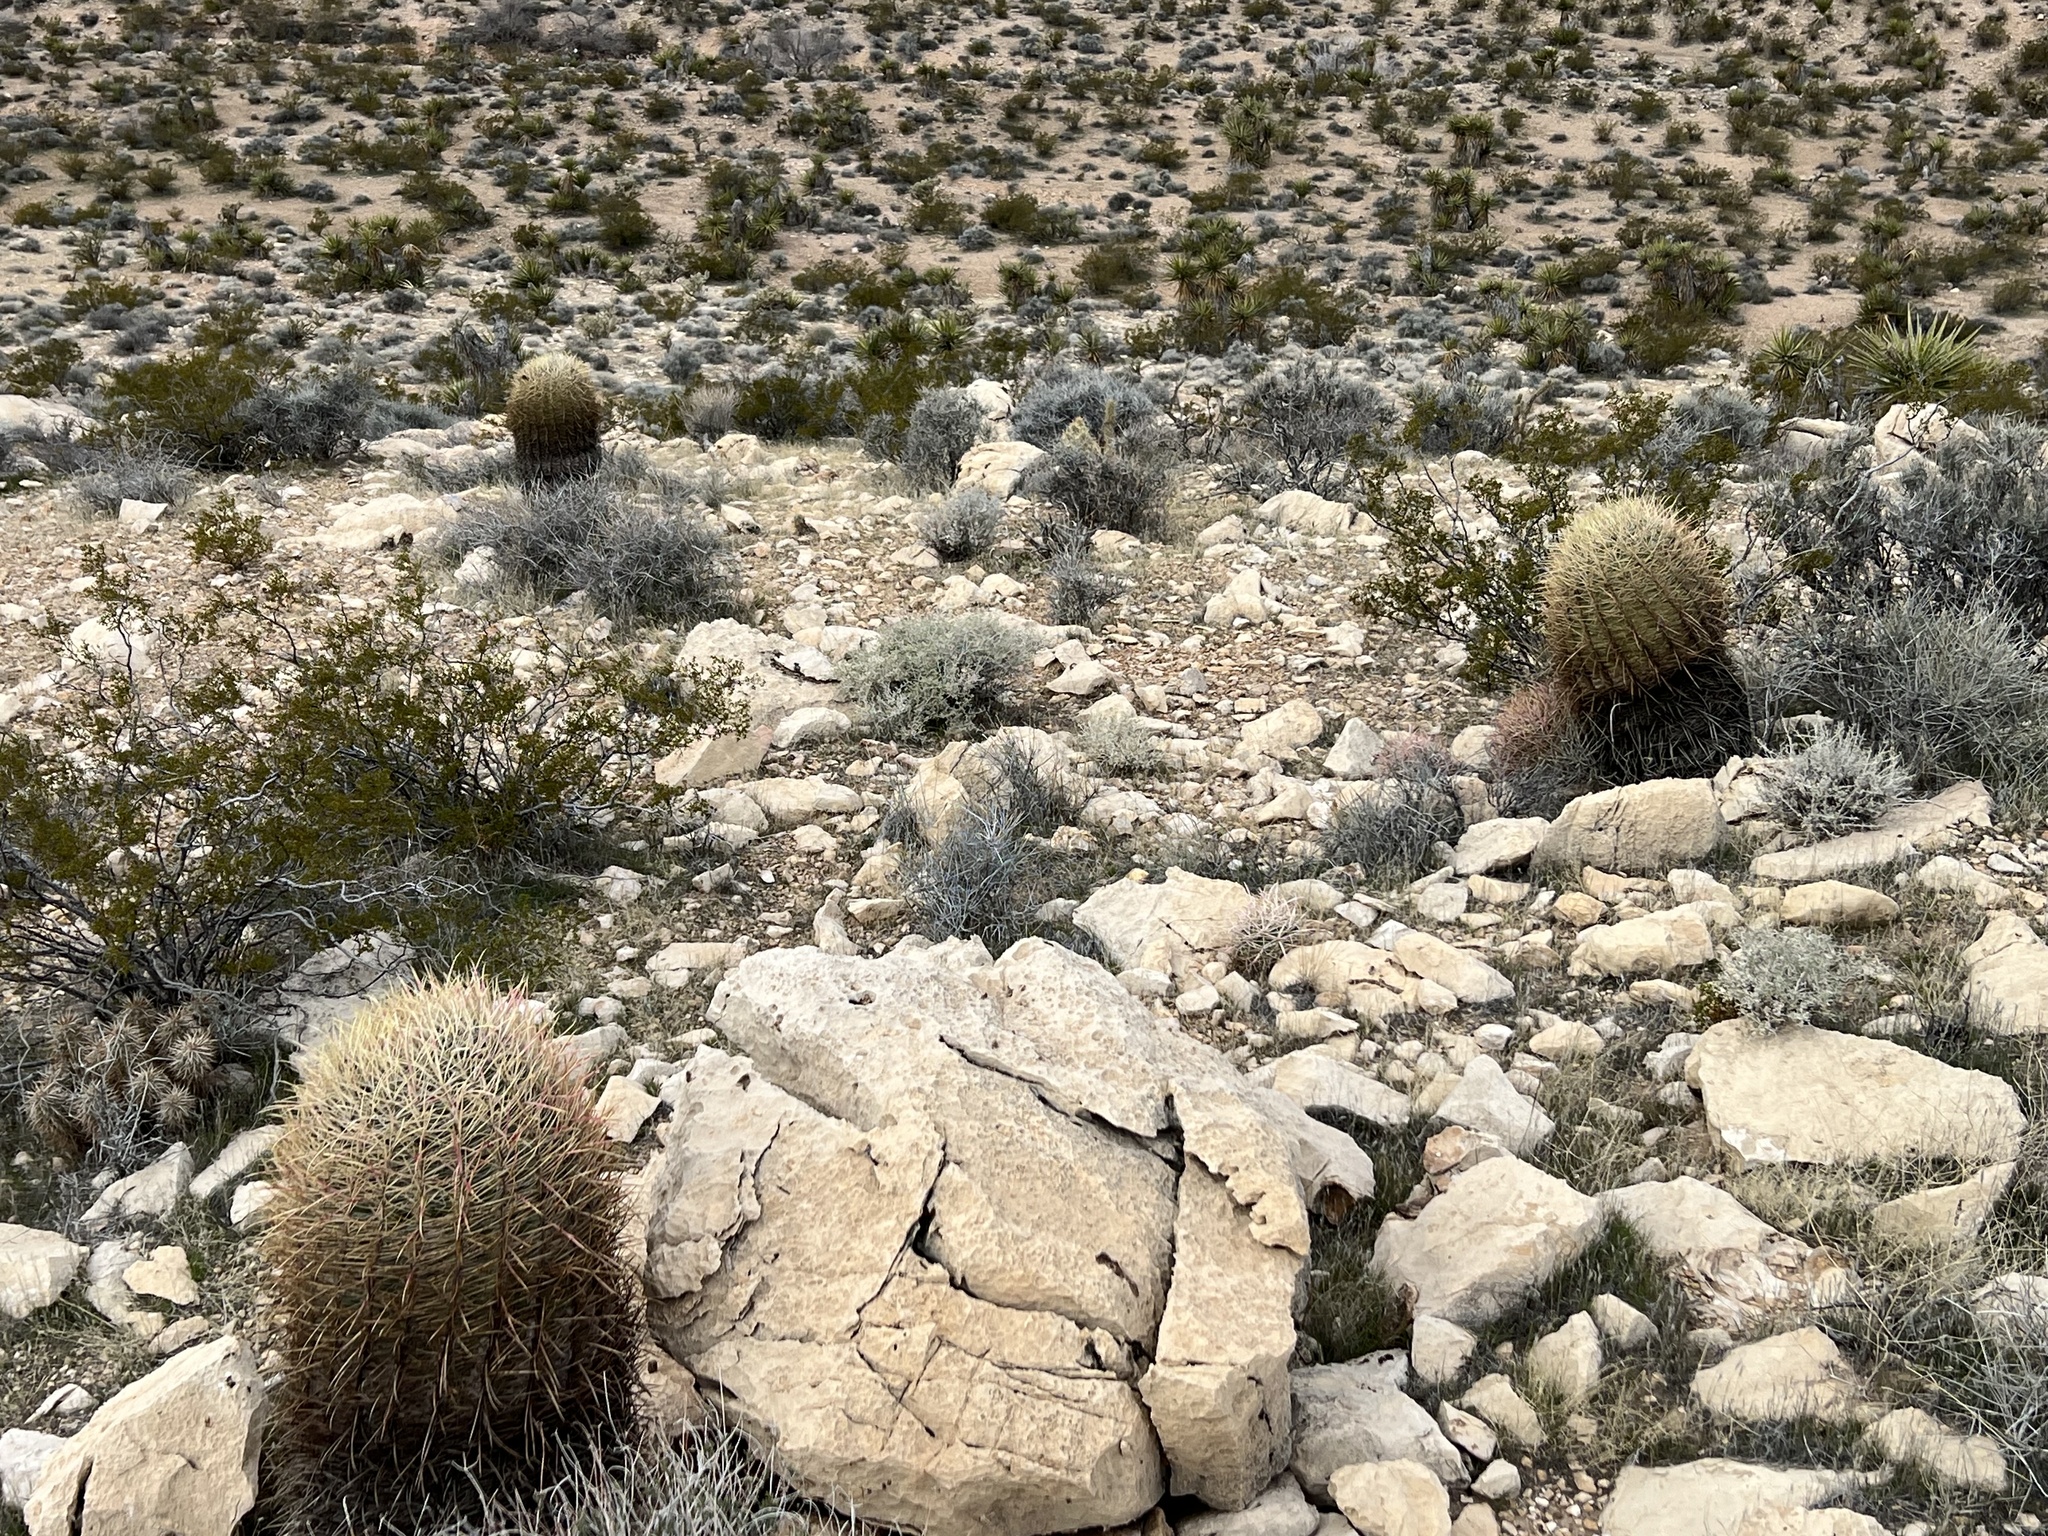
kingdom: Plantae
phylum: Tracheophyta
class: Magnoliopsida
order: Caryophyllales
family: Cactaceae
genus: Ferocactus
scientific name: Ferocactus cylindraceus
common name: California barrel cactus
